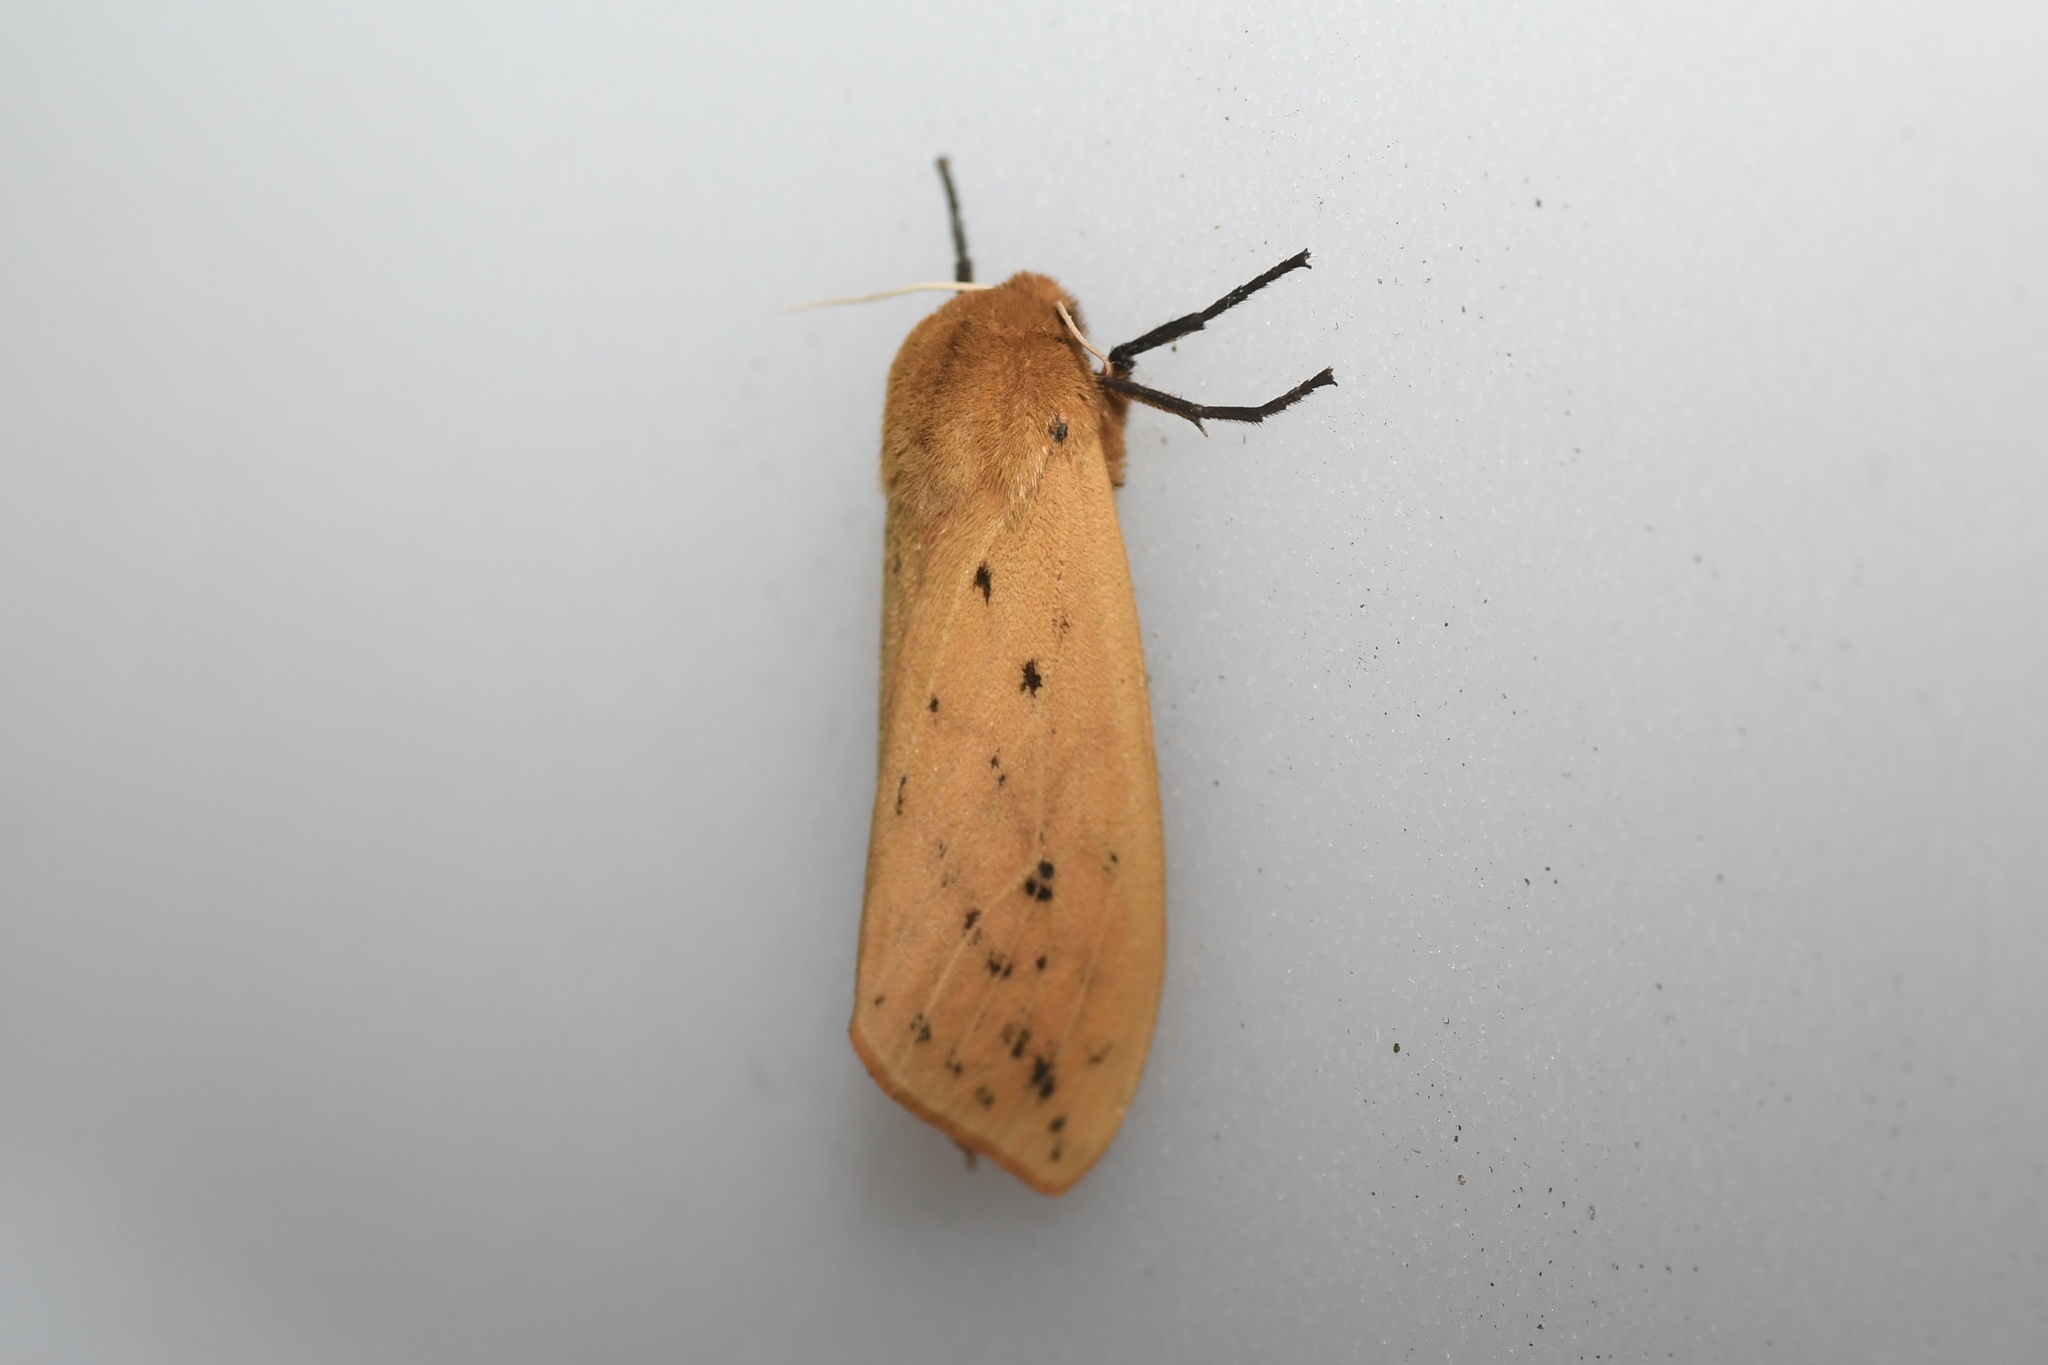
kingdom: Animalia
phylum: Arthropoda
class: Insecta
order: Lepidoptera
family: Erebidae
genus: Pyrrharctia
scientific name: Pyrrharctia isabella
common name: Isabella tiger moth
